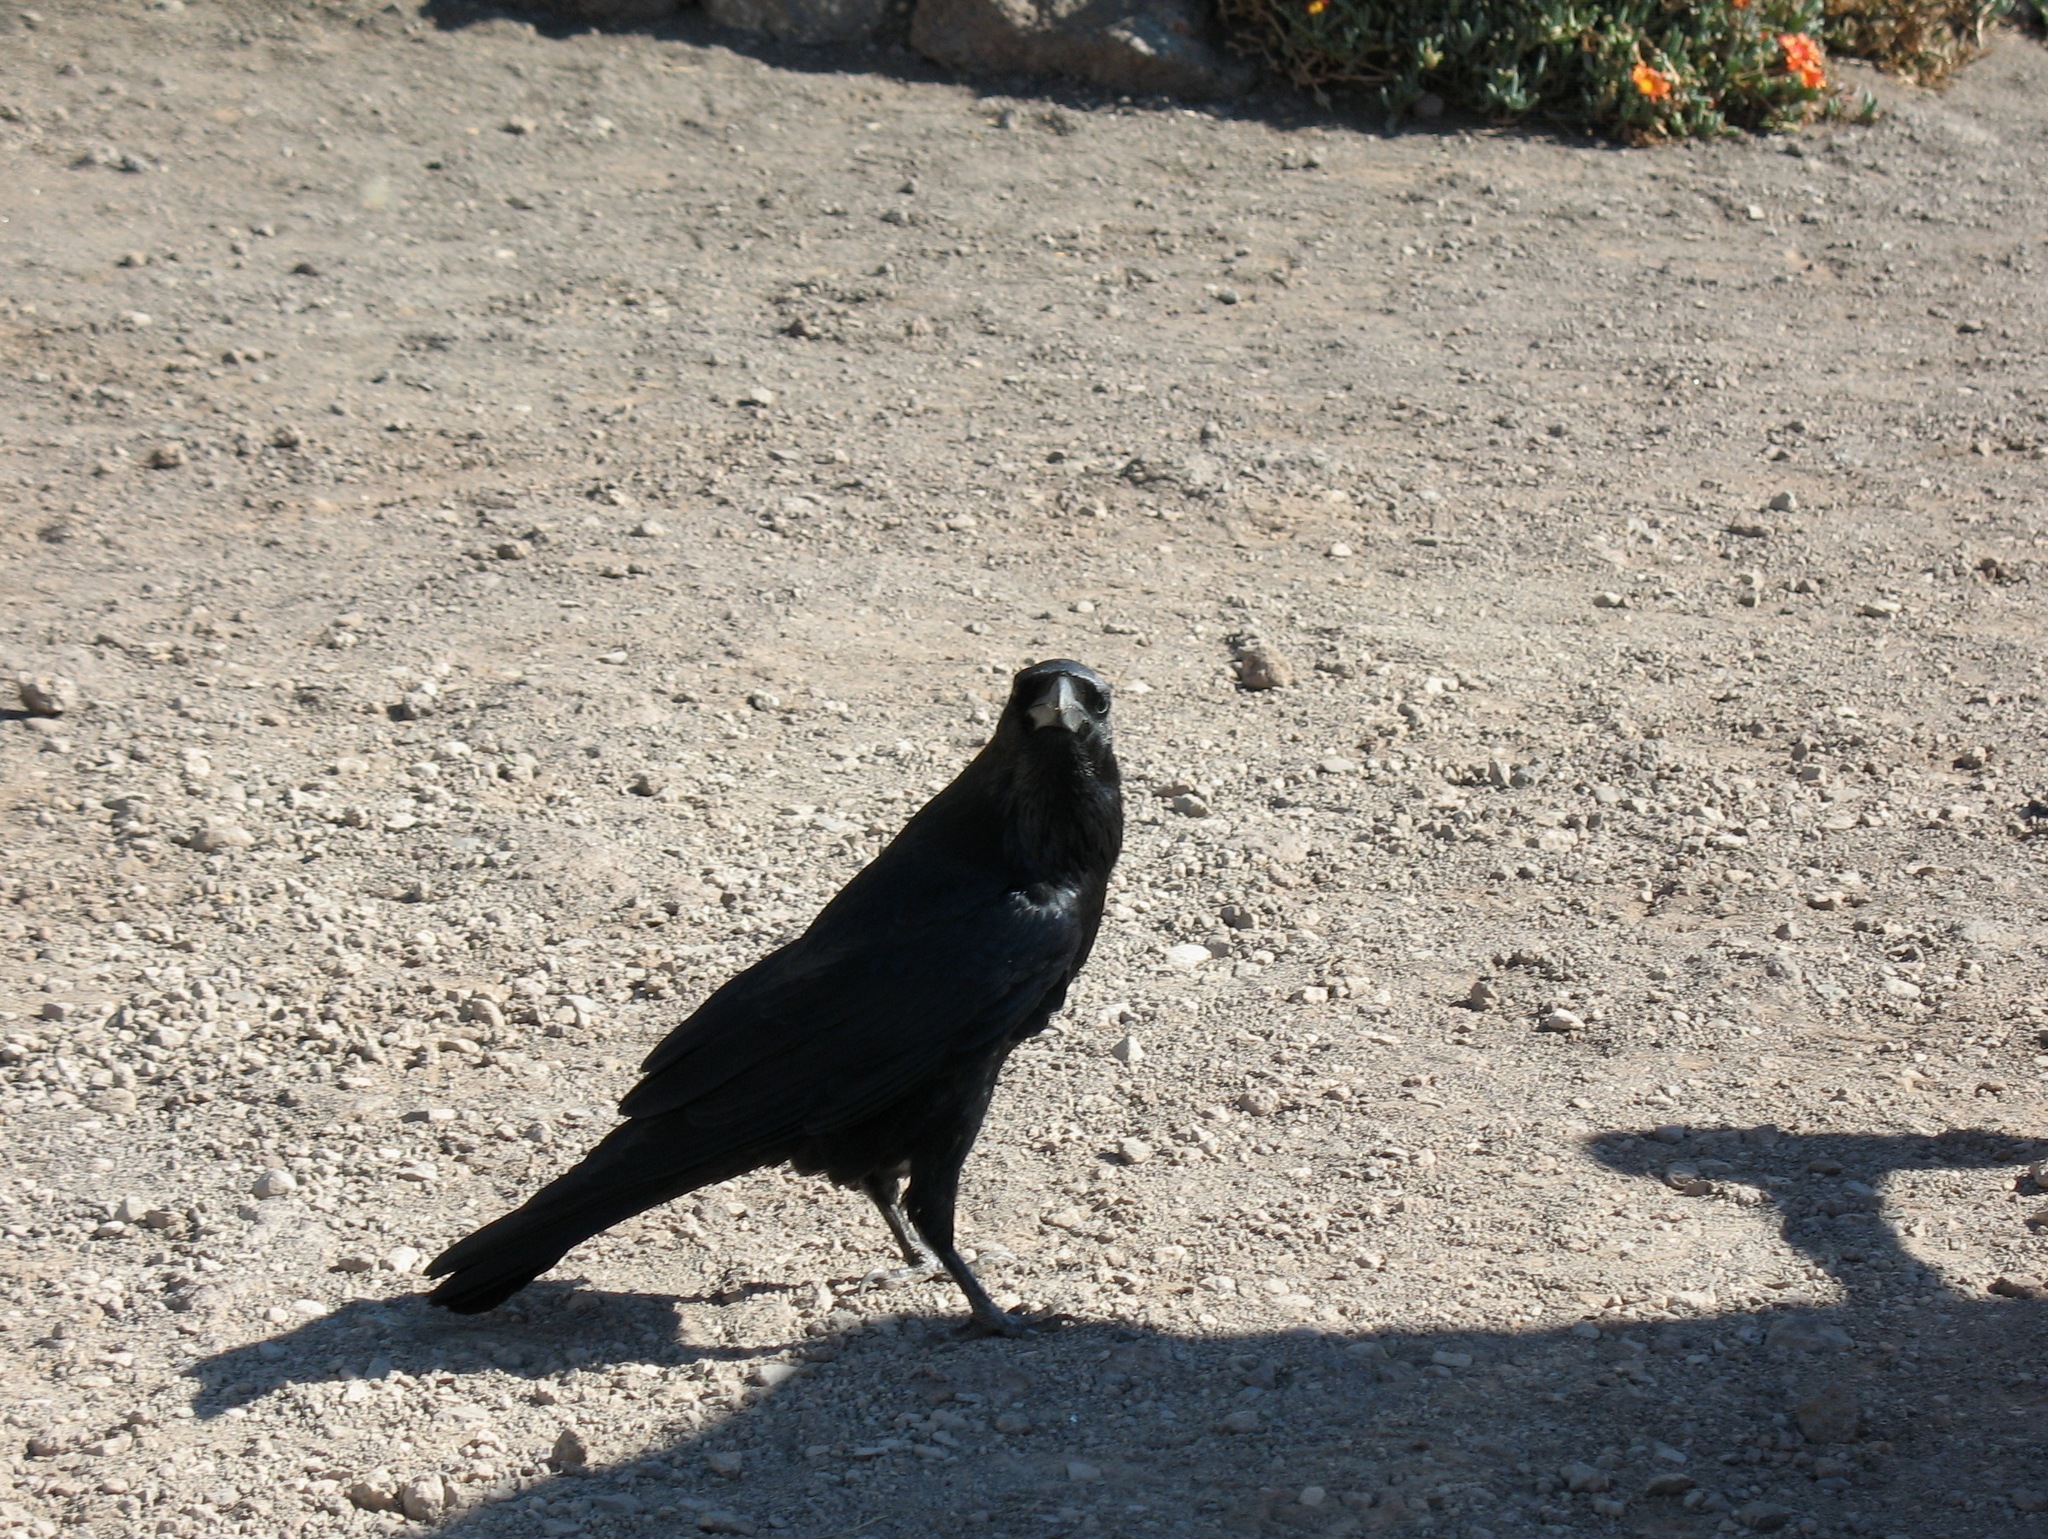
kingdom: Animalia
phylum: Chordata
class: Aves
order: Passeriformes
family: Corvidae
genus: Corvus
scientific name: Corvus corax
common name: Common raven
